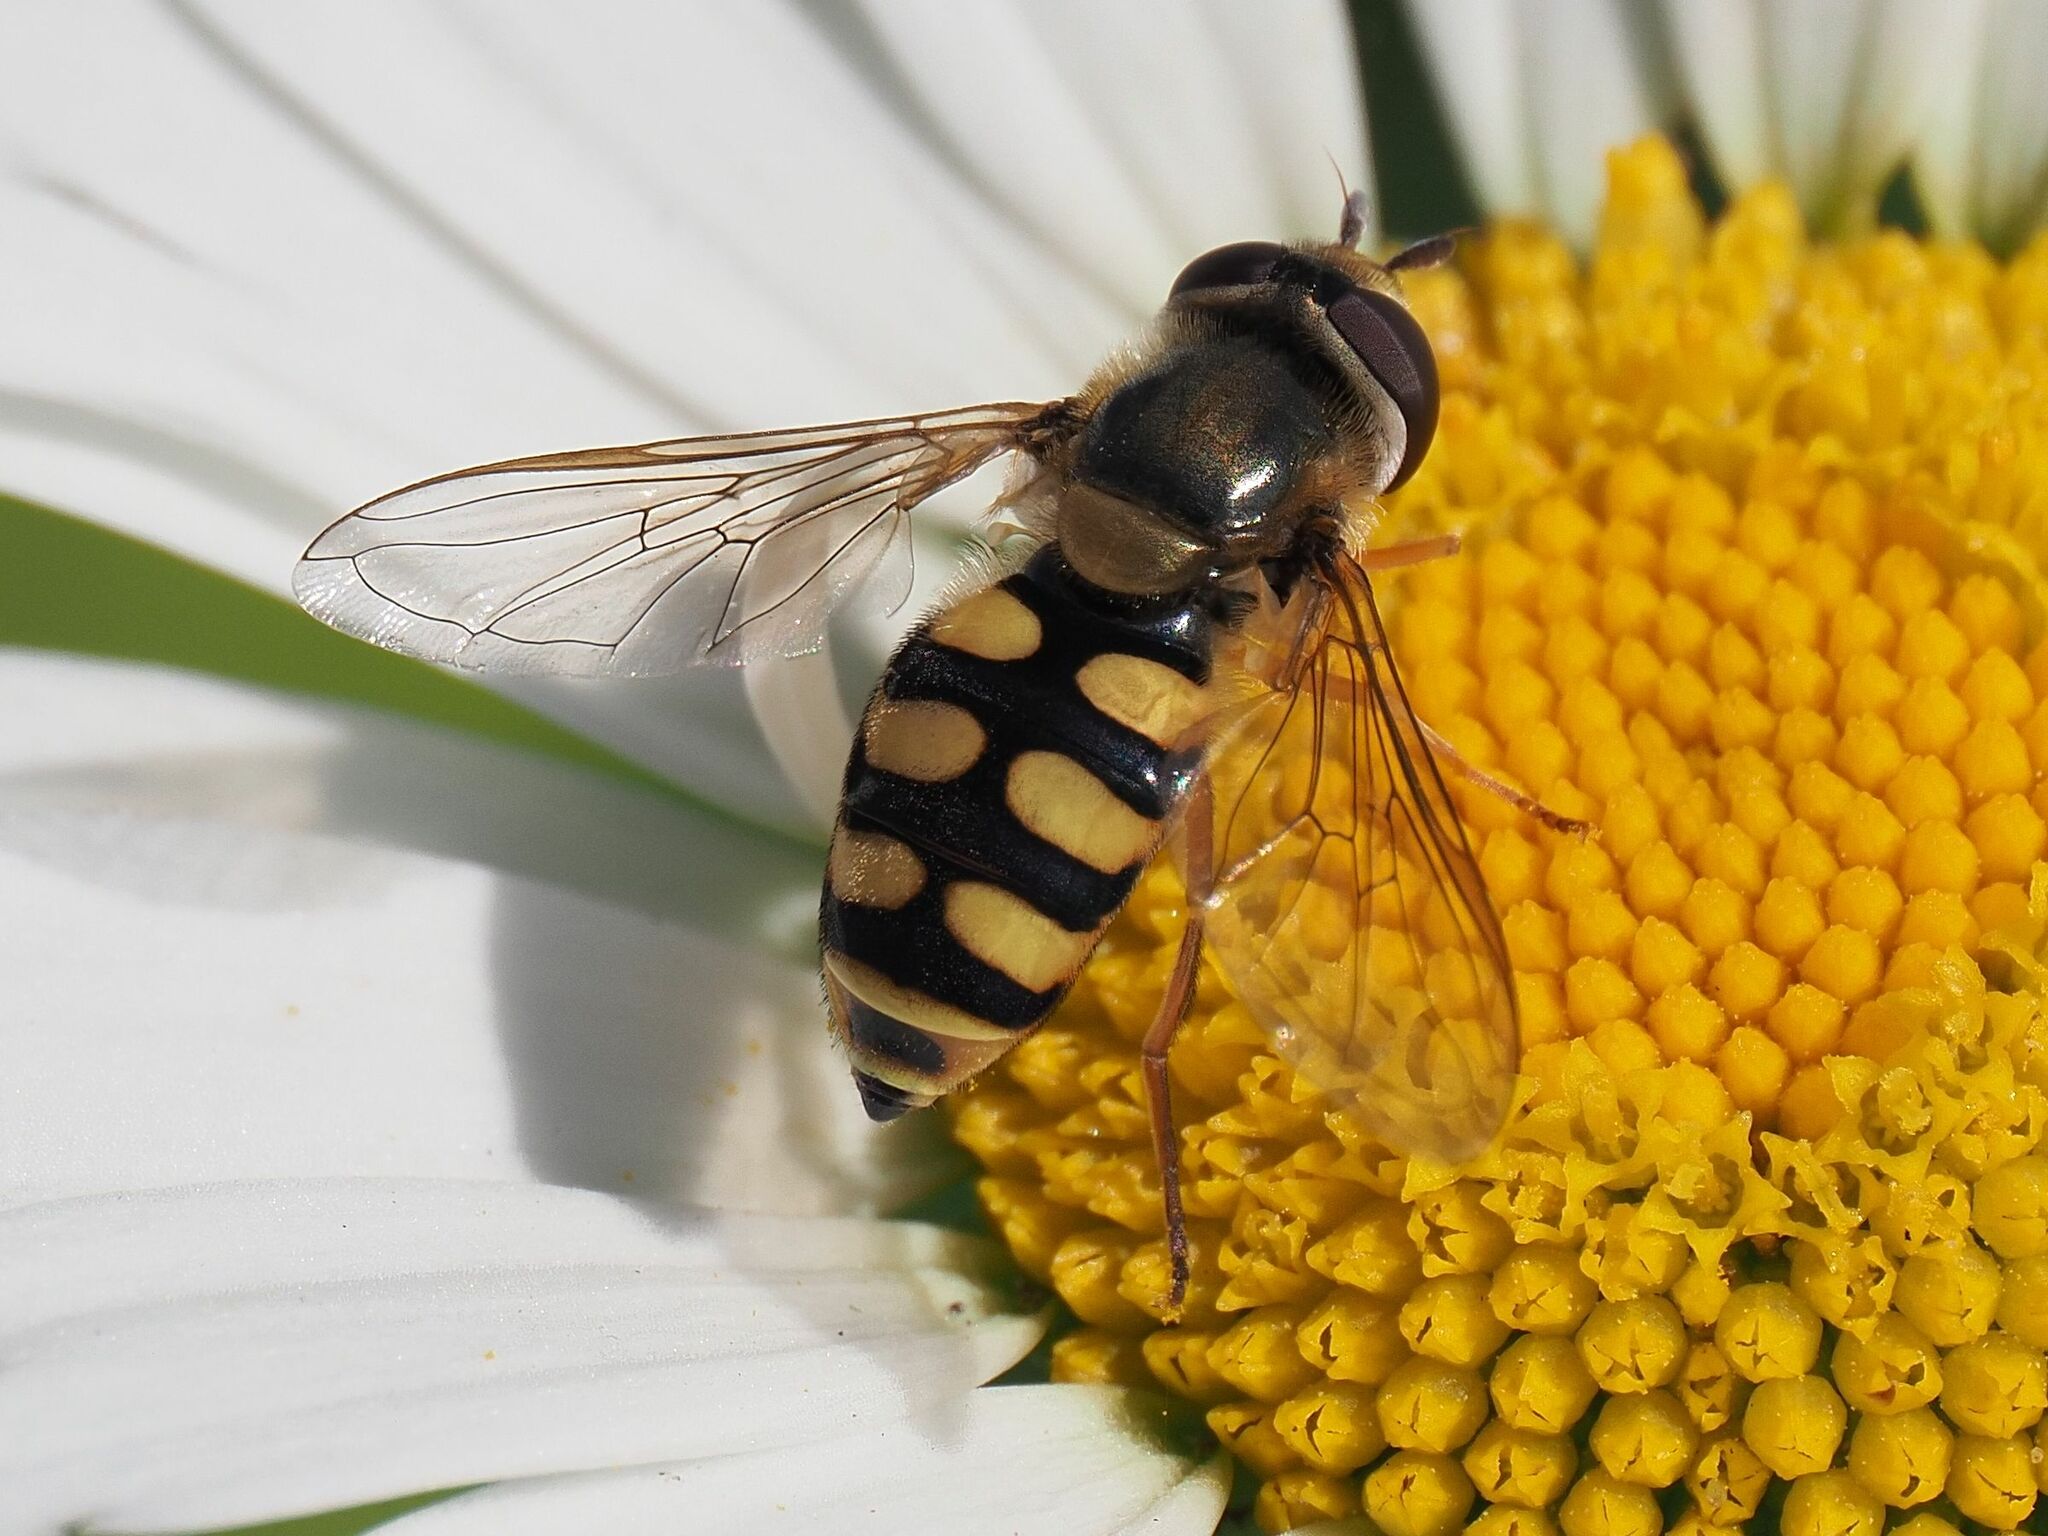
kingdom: Animalia
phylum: Arthropoda
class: Insecta
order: Diptera
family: Syrphidae
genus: Eupeodes
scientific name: Eupeodes corollae
